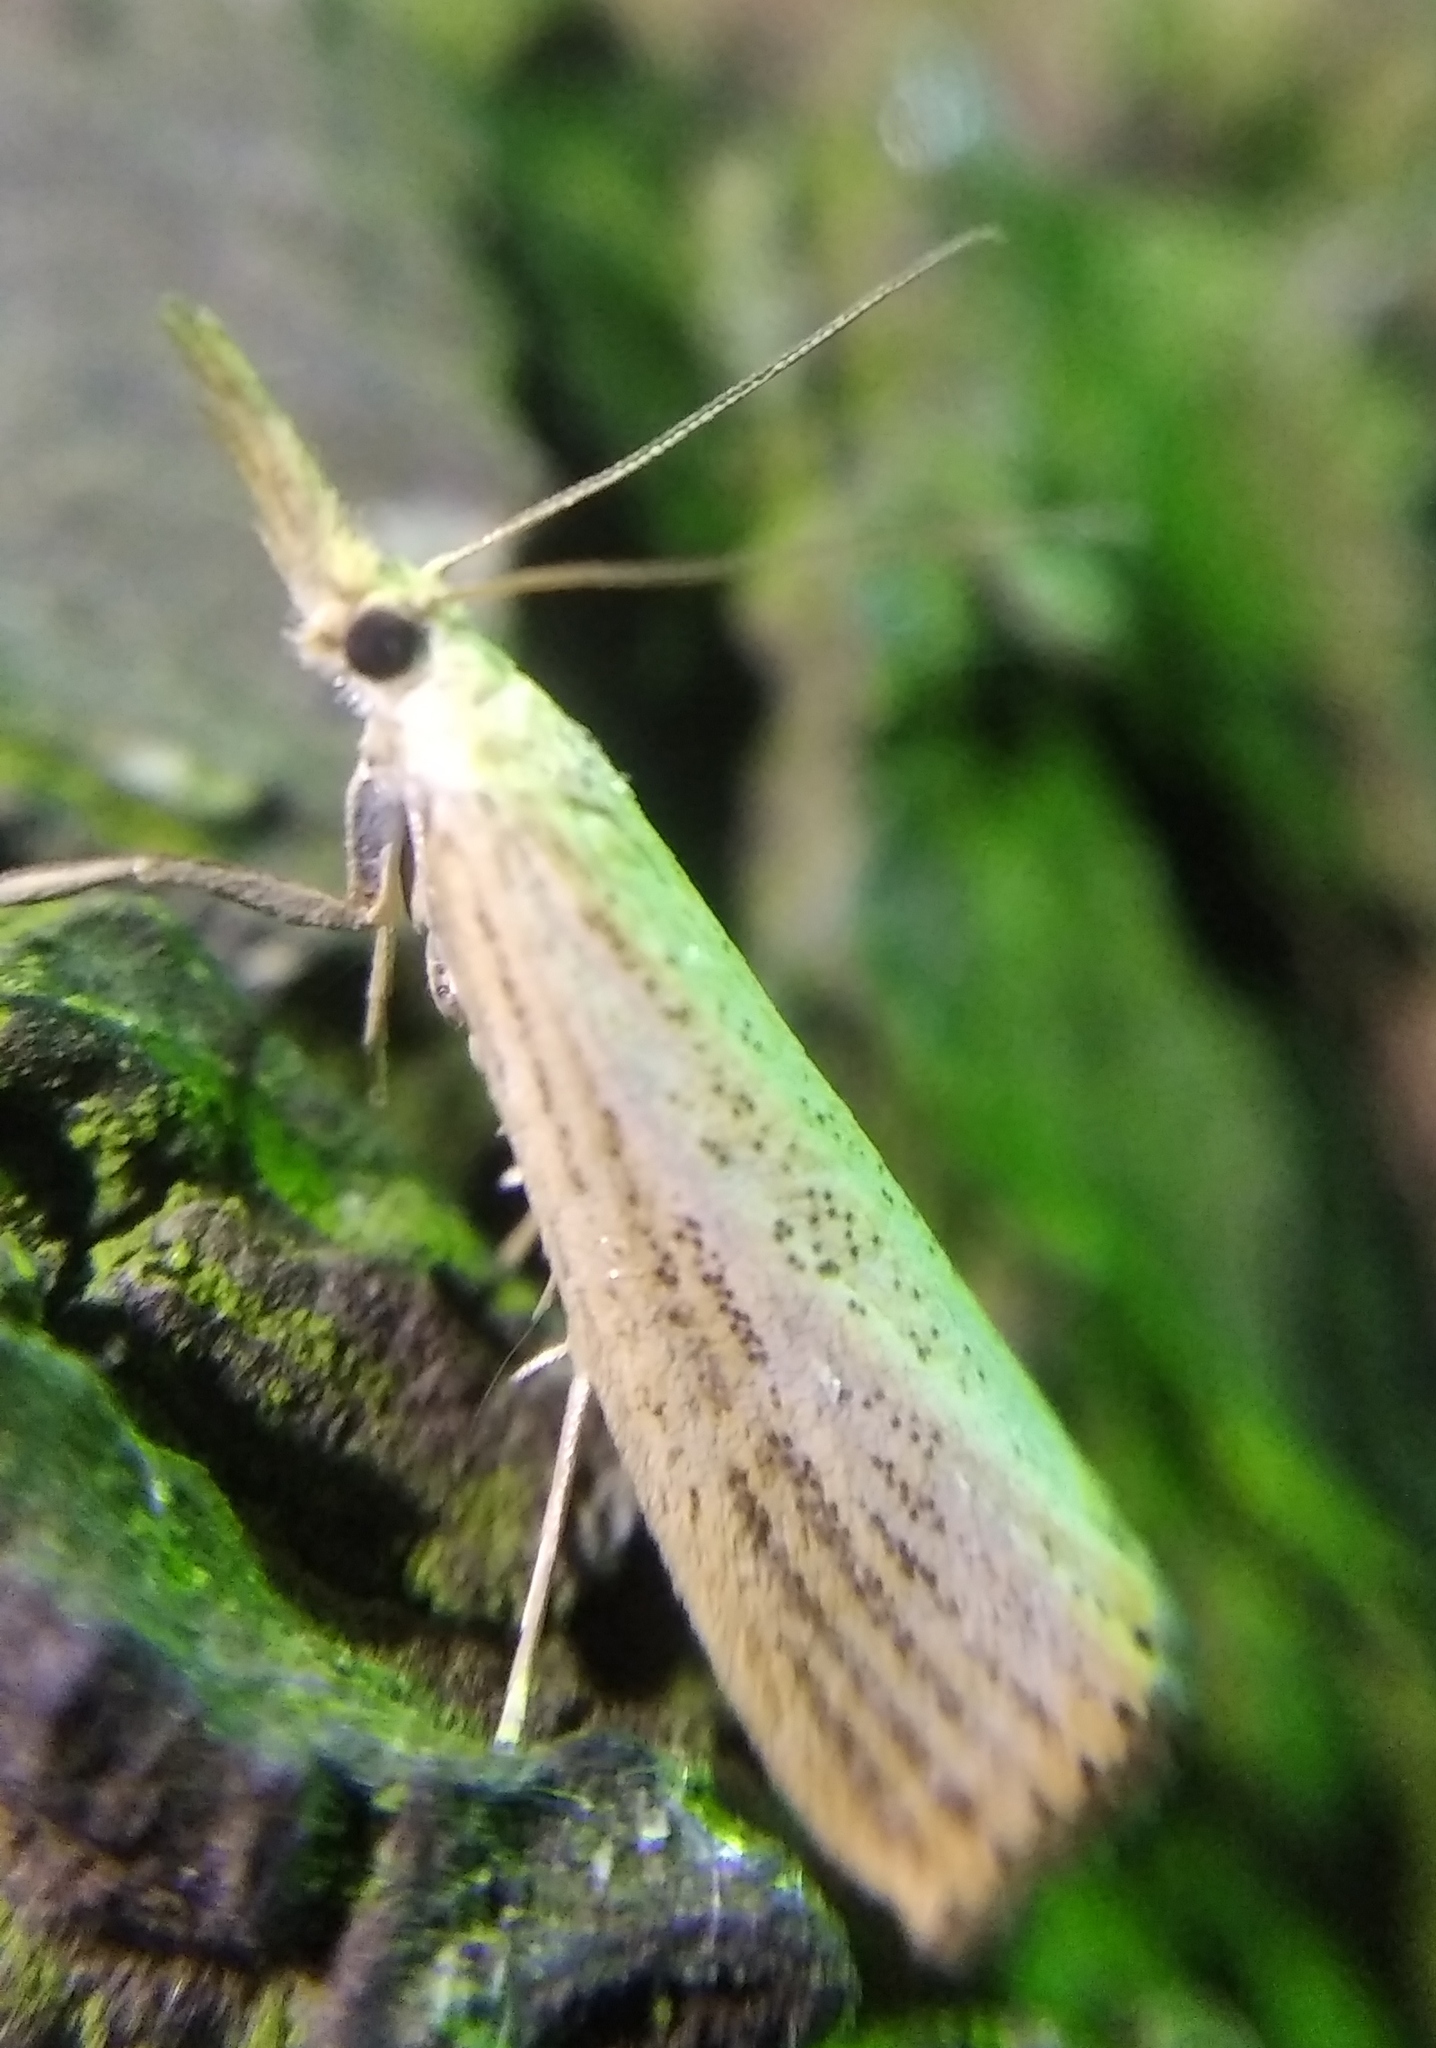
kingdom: Animalia
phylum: Arthropoda
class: Insecta
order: Lepidoptera
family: Crambidae
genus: Agriphila
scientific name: Agriphila straminella
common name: Straw grass-veneer
